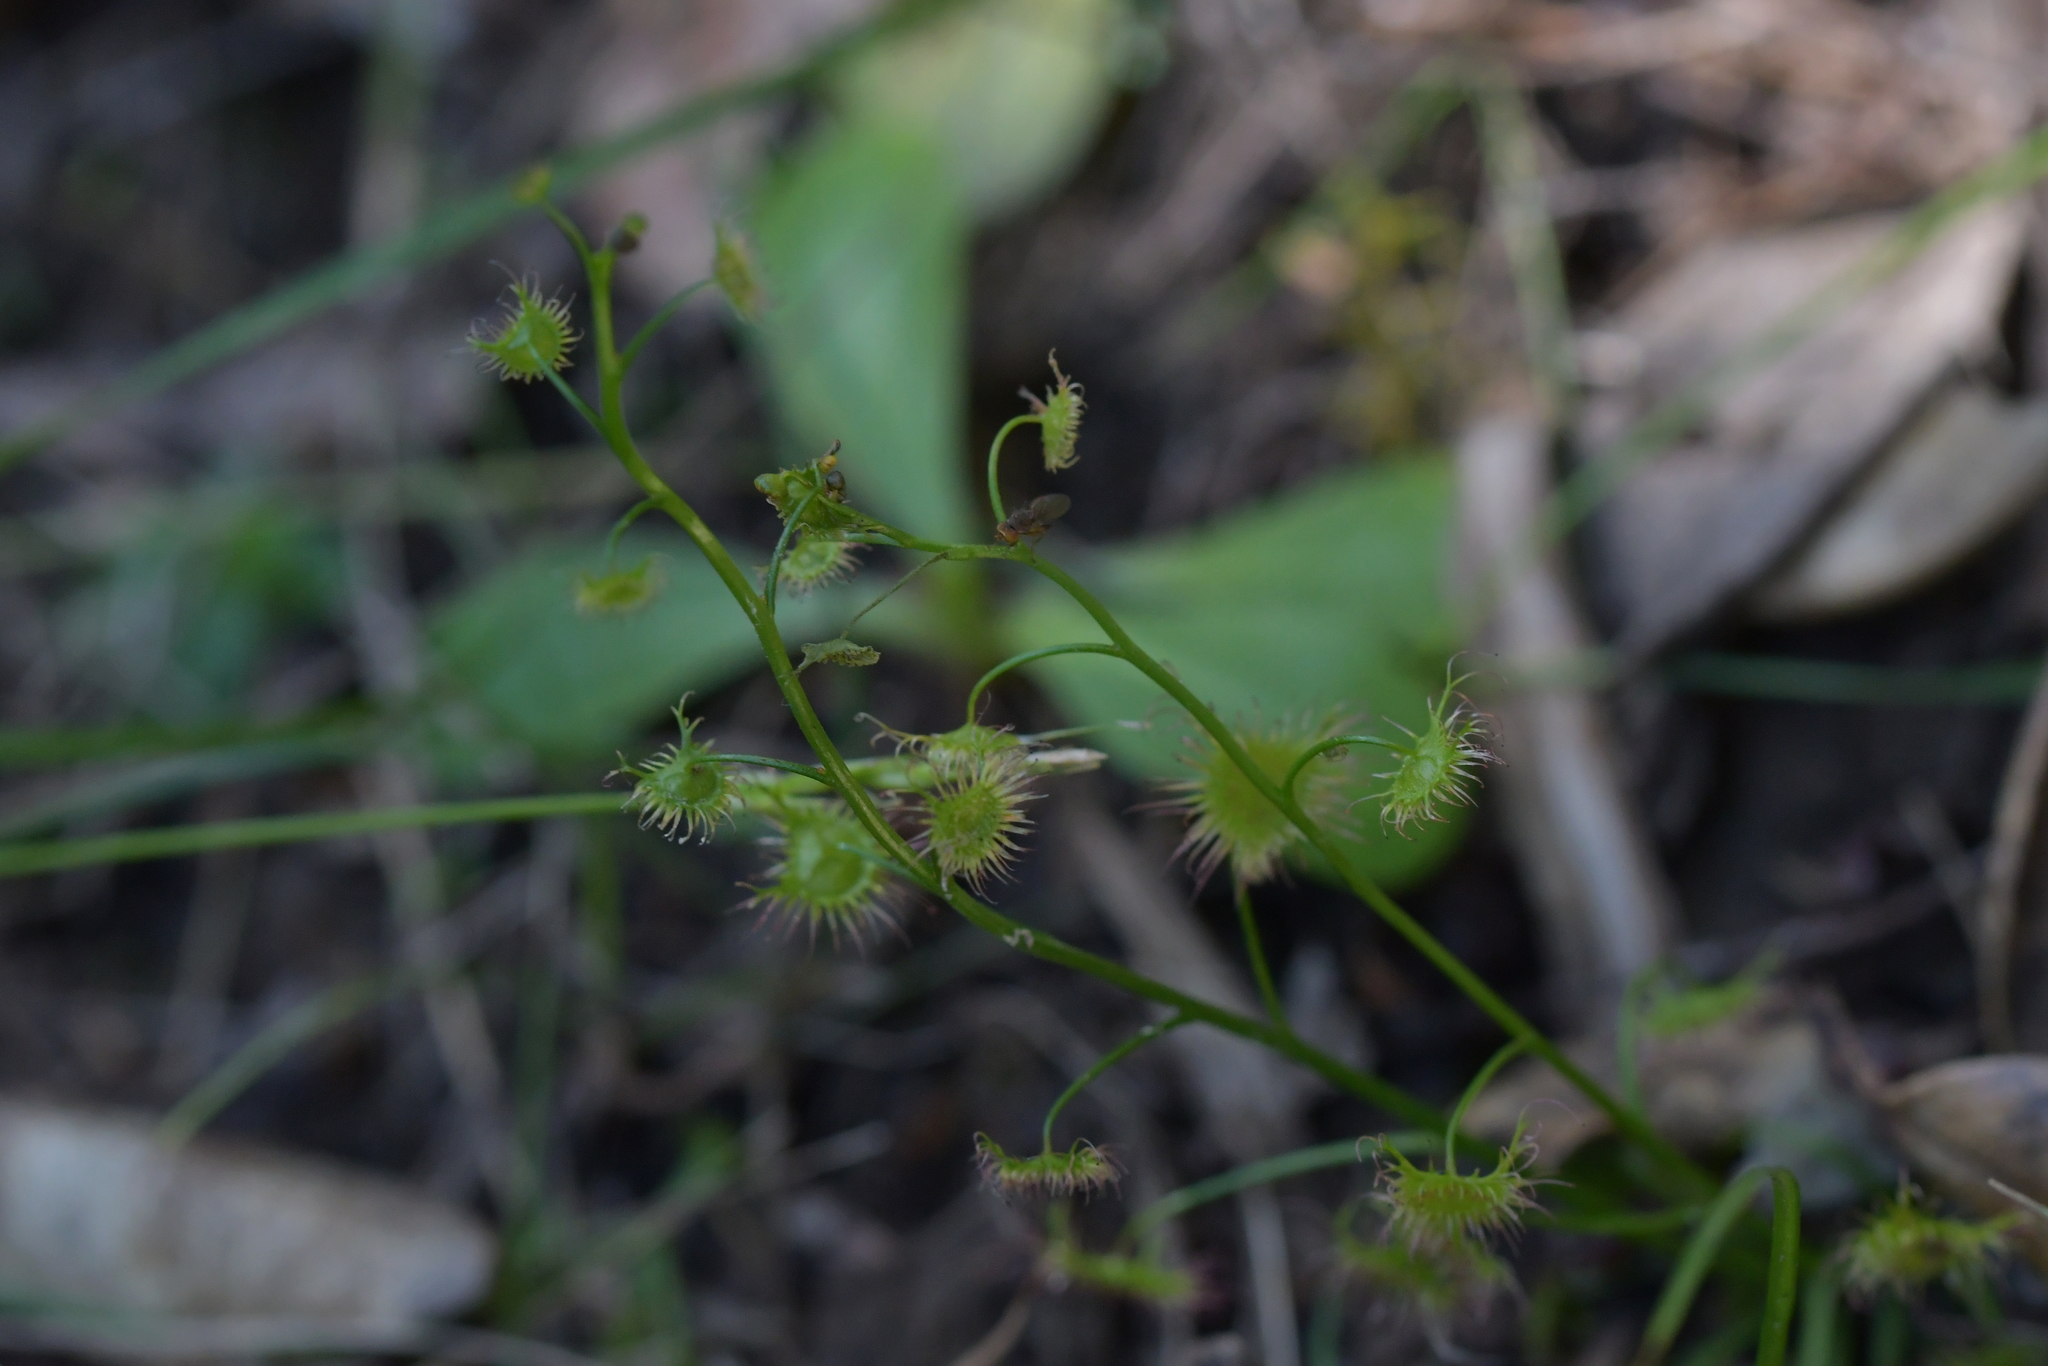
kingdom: Plantae
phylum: Tracheophyta
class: Magnoliopsida
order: Caryophyllales
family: Droseraceae
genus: Drosera
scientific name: Drosera peltata
